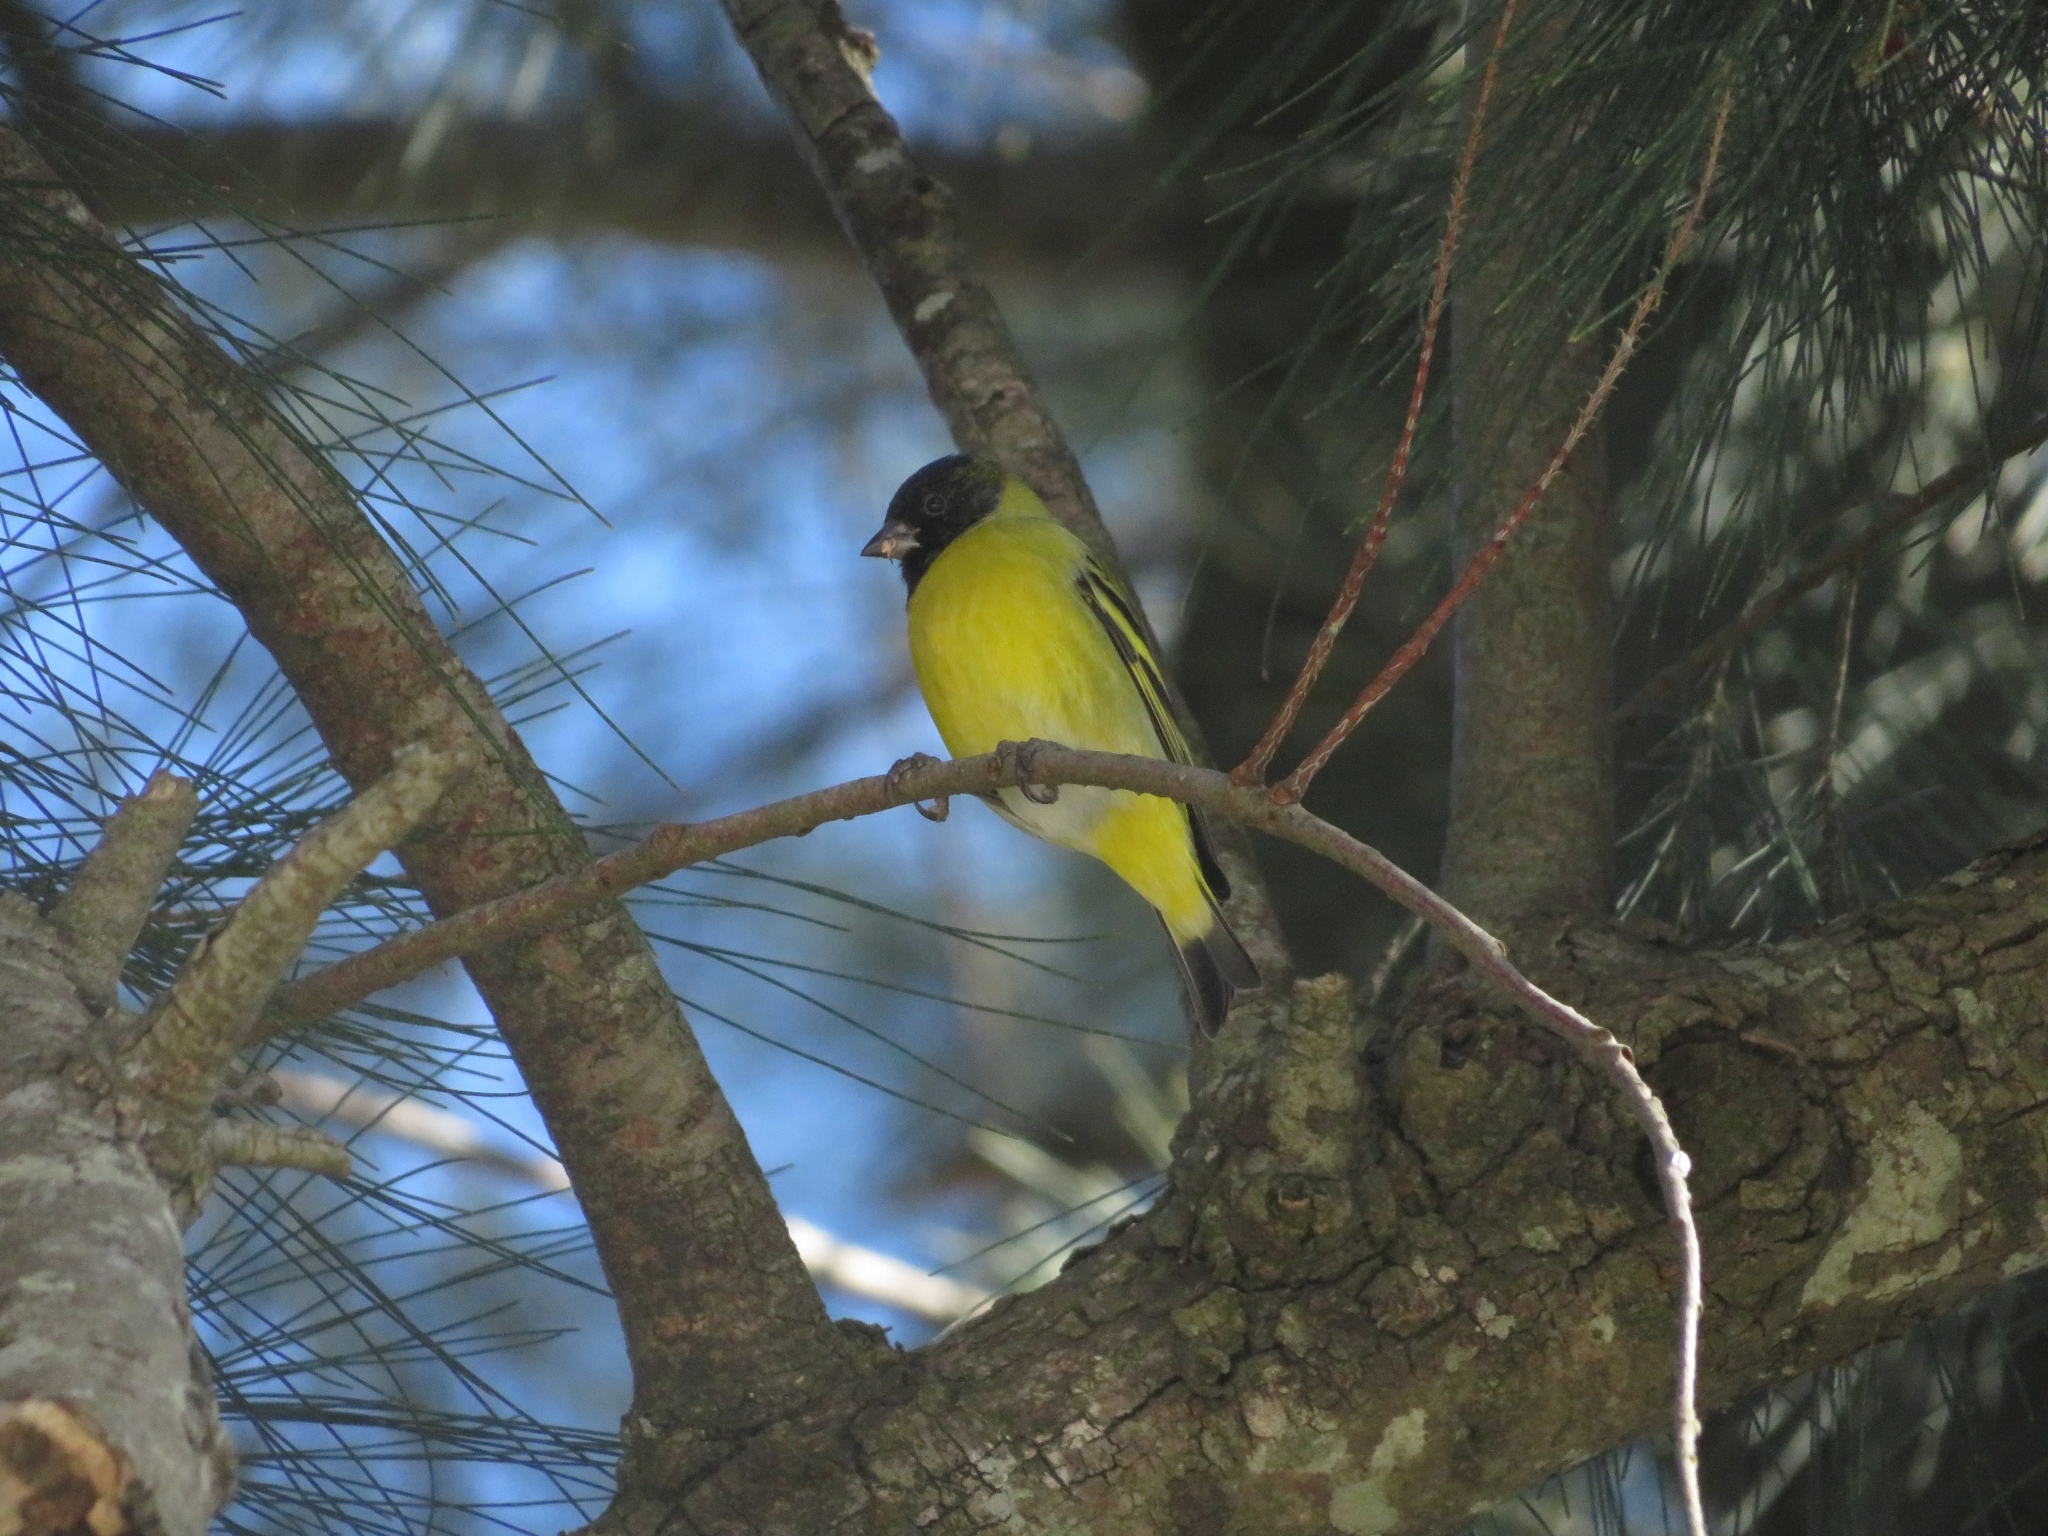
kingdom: Animalia
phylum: Chordata
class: Aves
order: Passeriformes
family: Fringillidae
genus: Spinus
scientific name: Spinus magellanicus
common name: Hooded siskin
